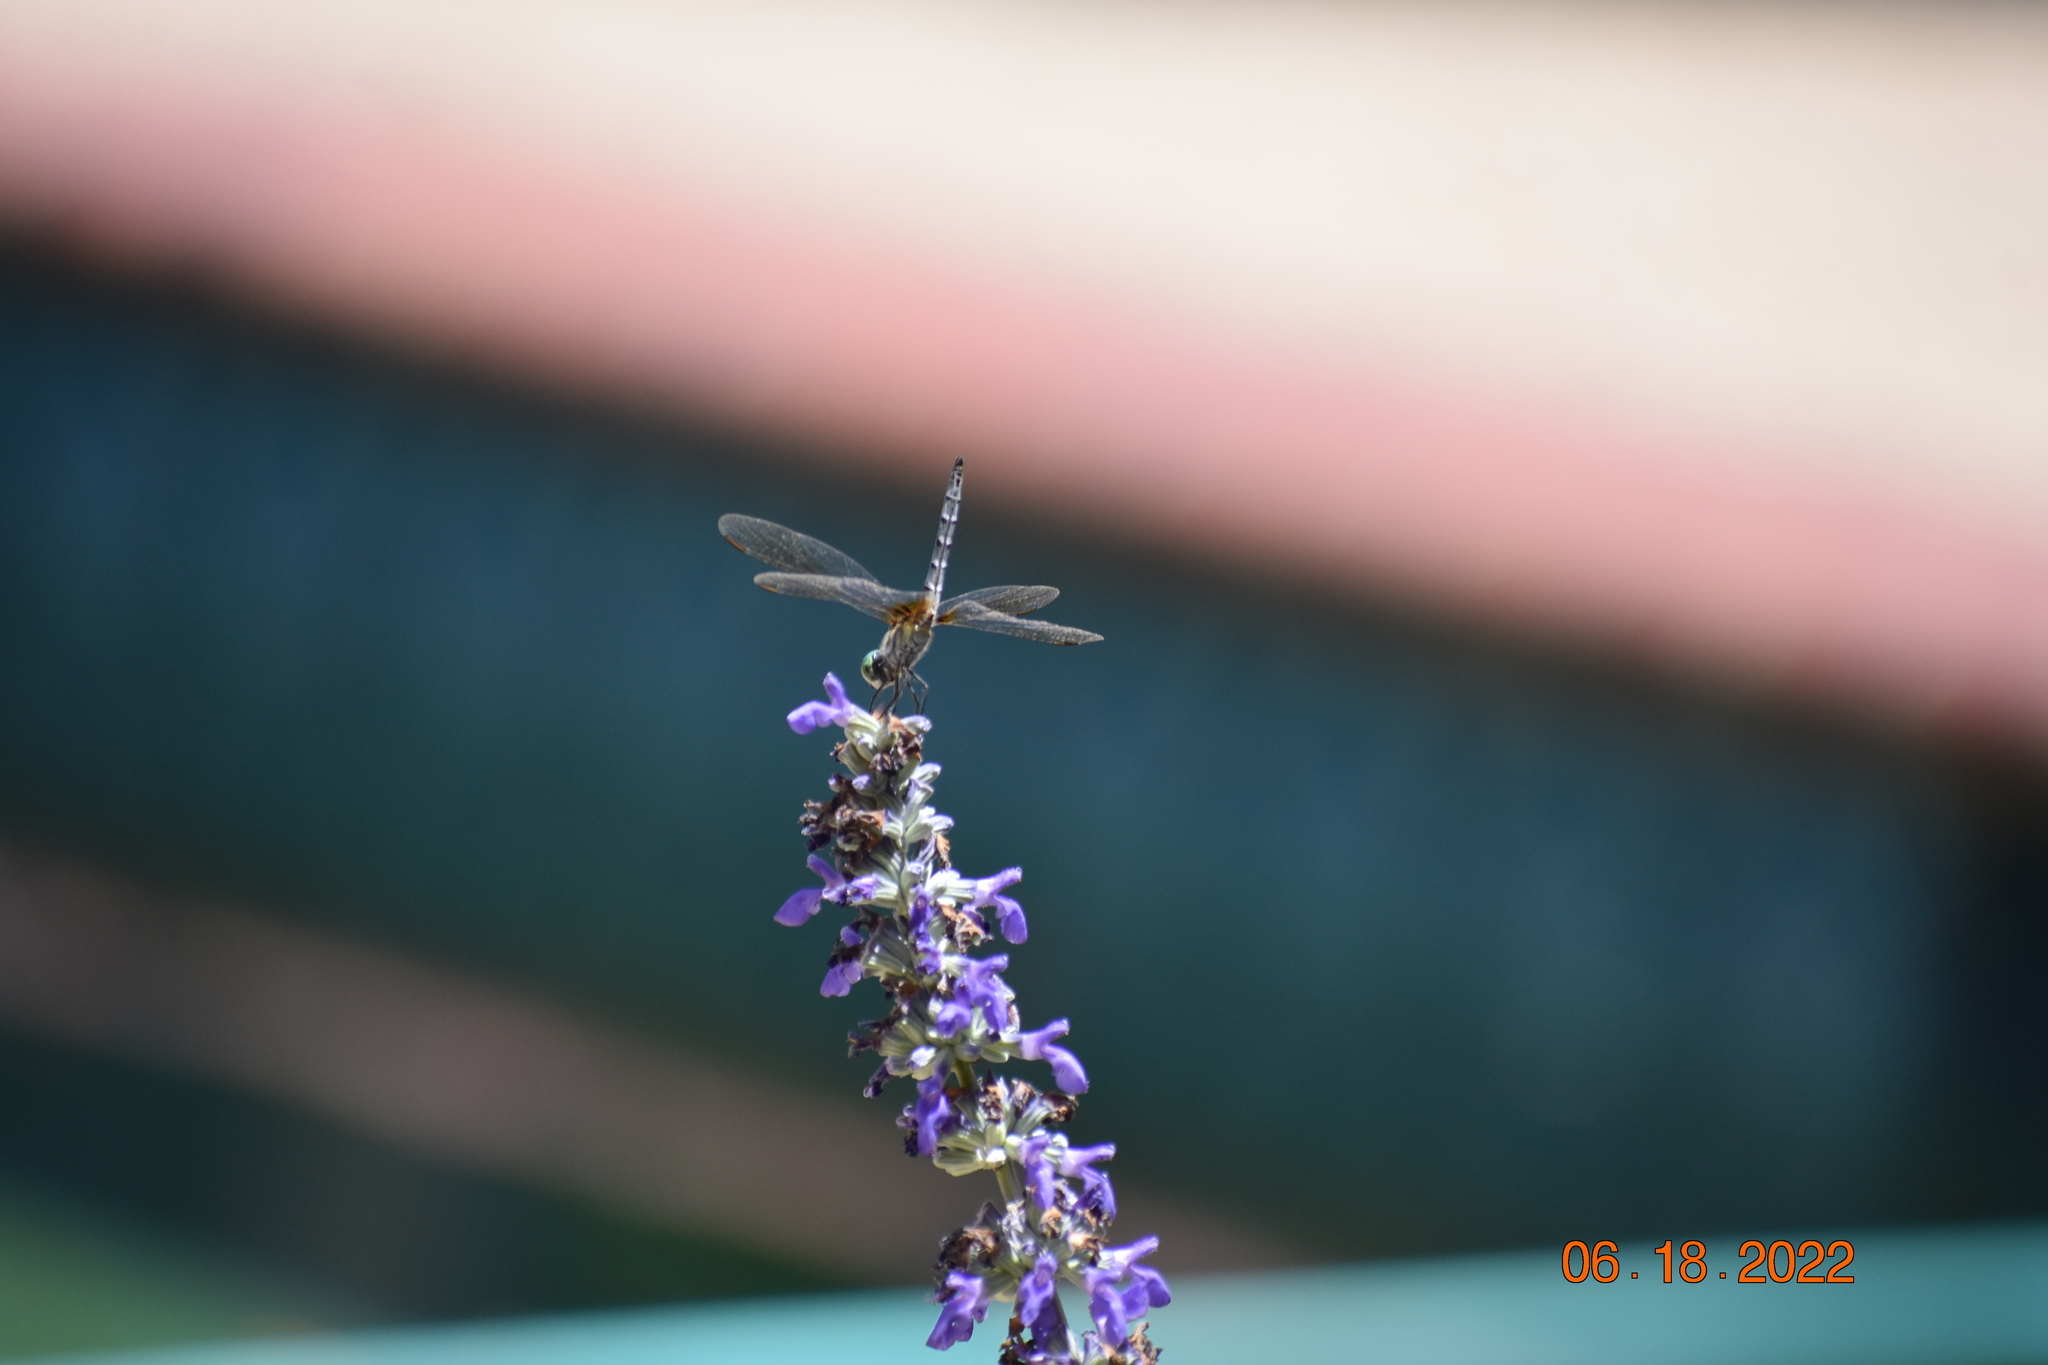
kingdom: Animalia
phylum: Arthropoda
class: Insecta
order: Odonata
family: Libellulidae
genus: Pachydiplax
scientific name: Pachydiplax longipennis
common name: Blue dasher
